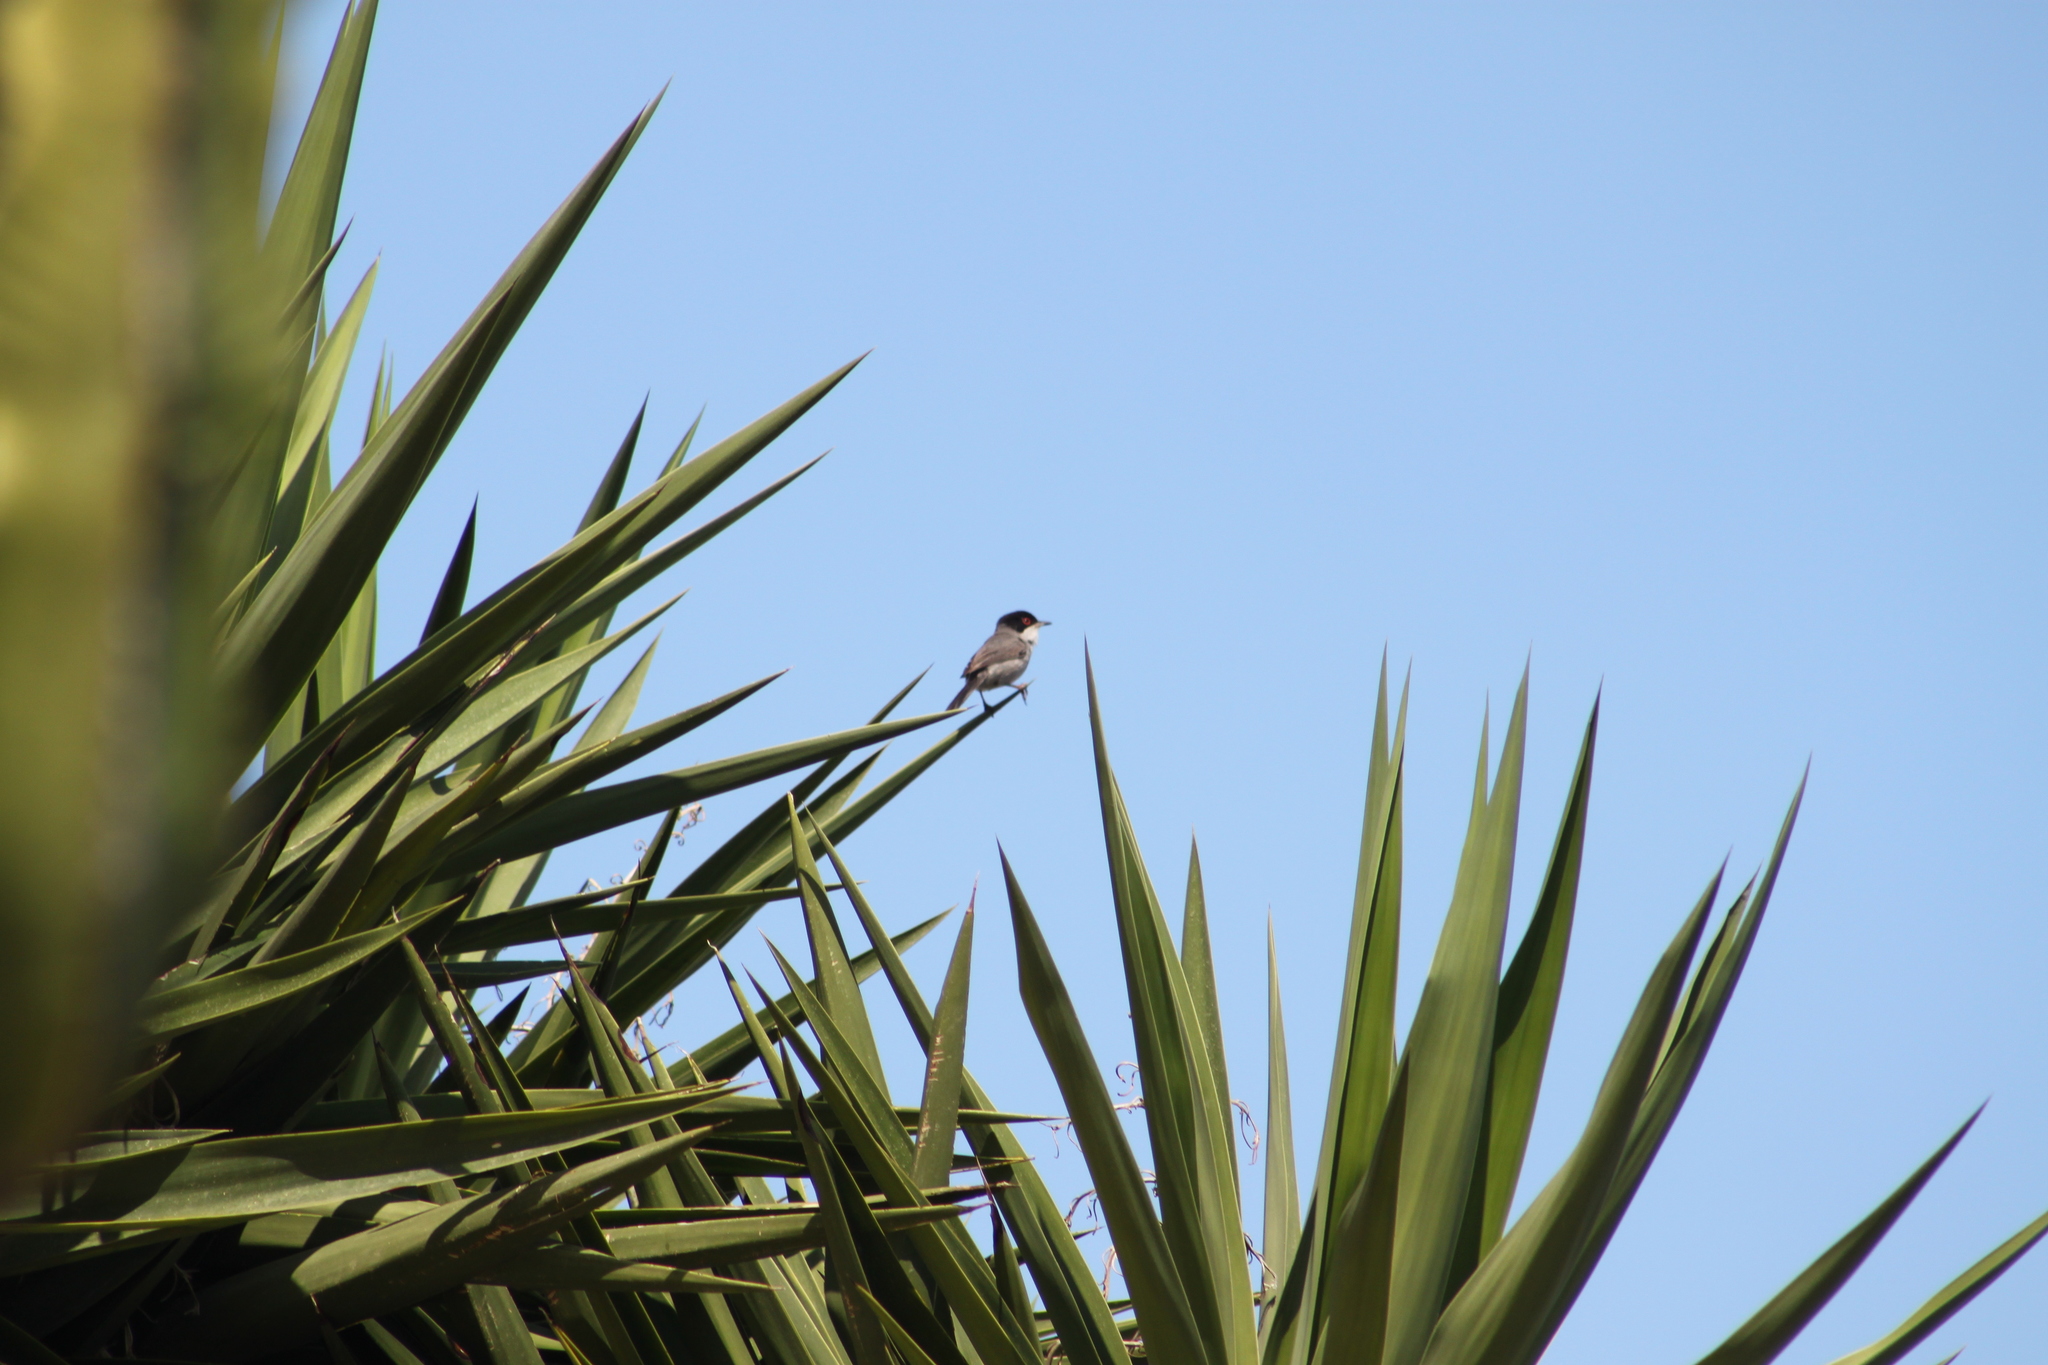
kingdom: Animalia
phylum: Chordata
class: Aves
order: Passeriformes
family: Sylviidae
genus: Curruca
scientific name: Curruca melanocephala
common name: Sardinian warbler
